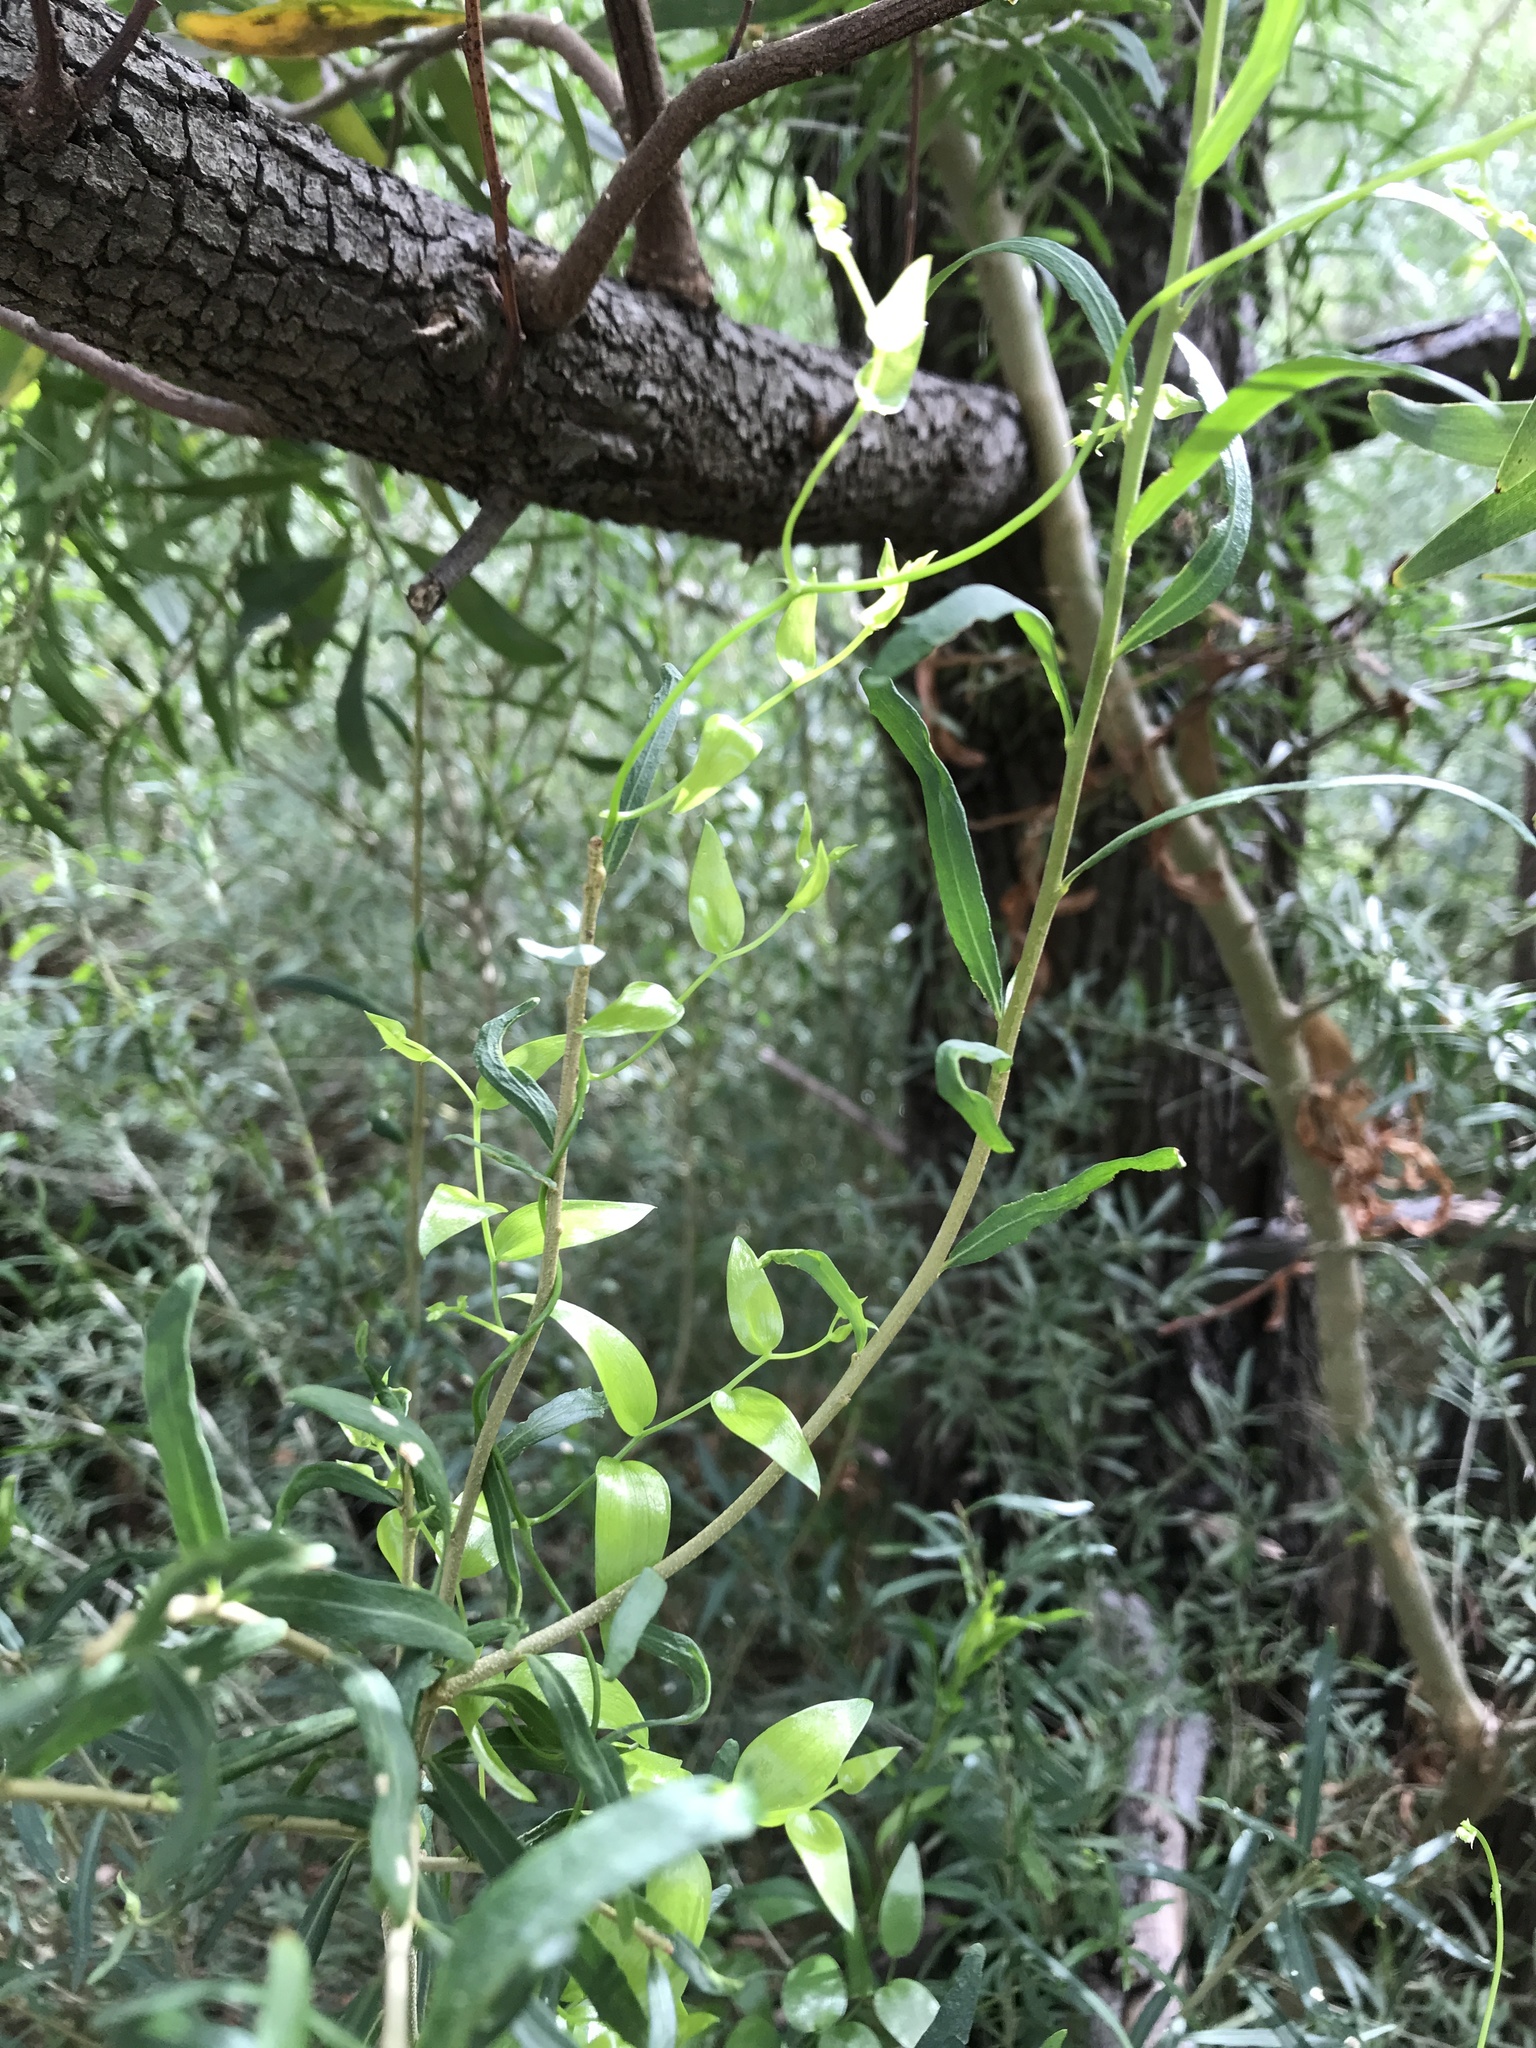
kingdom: Plantae
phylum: Tracheophyta
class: Liliopsida
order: Asparagales
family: Asparagaceae
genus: Asparagus
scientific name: Asparagus asparagoides
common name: African asparagus fern
